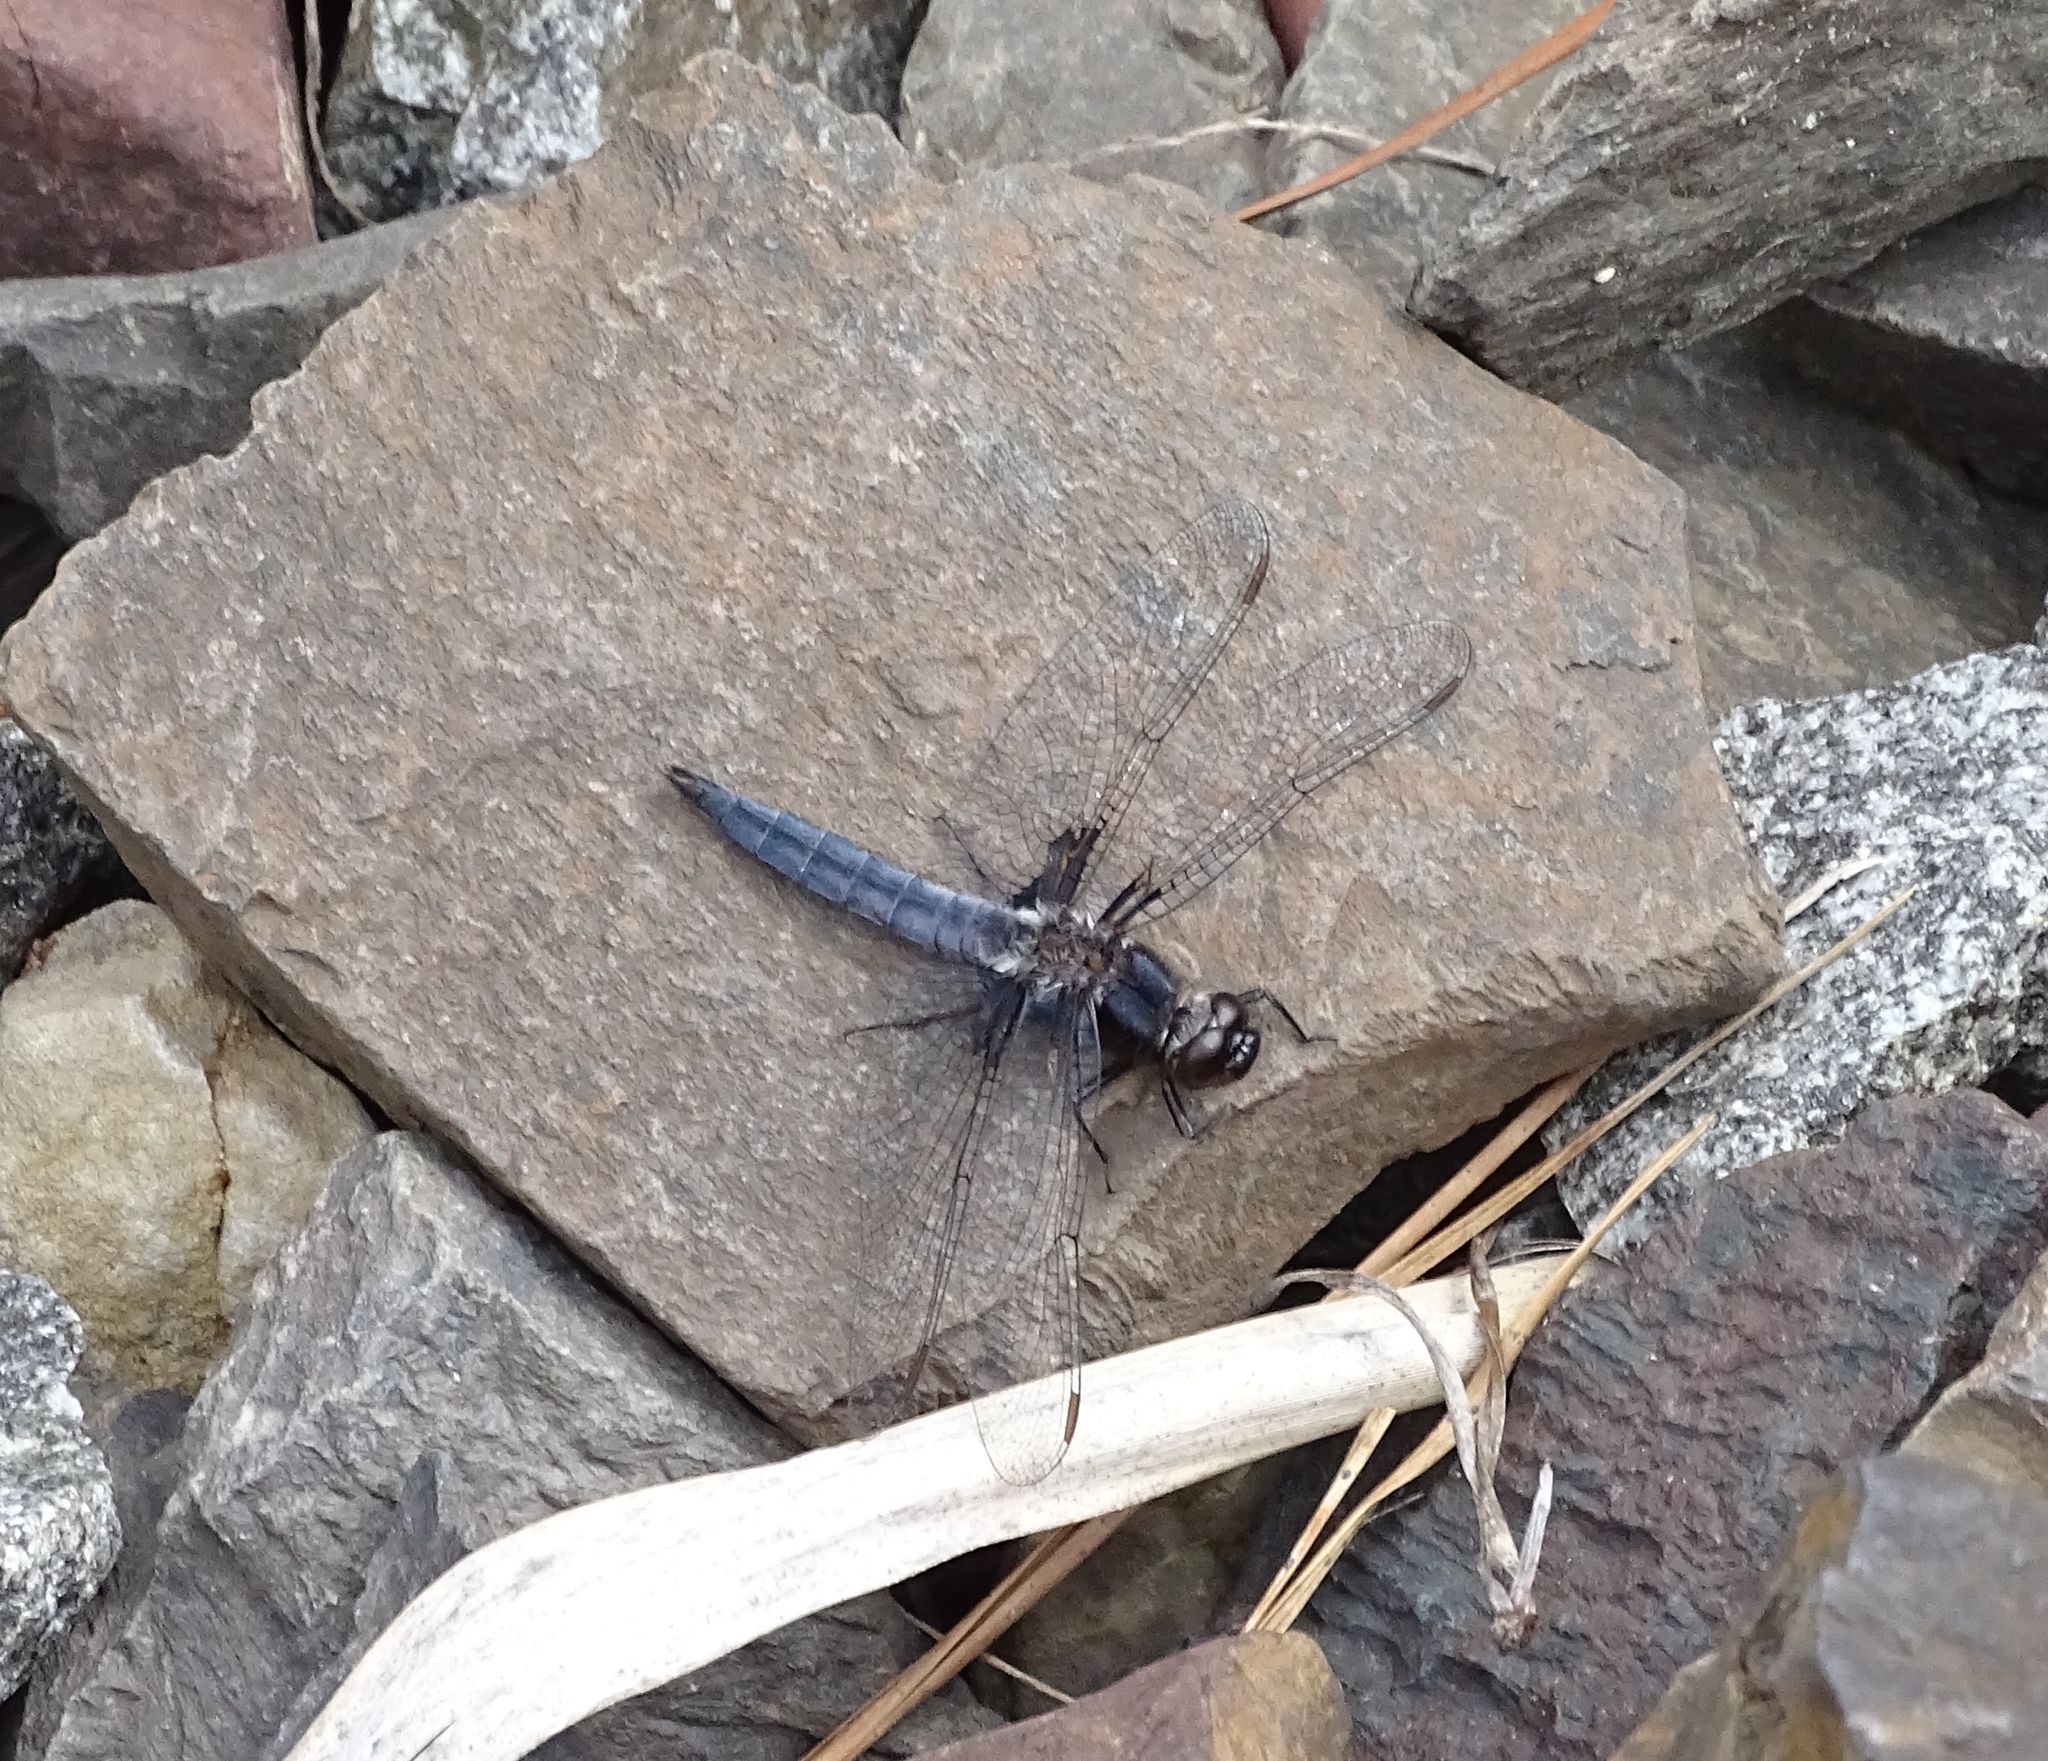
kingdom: Animalia
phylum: Arthropoda
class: Insecta
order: Odonata
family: Libellulidae
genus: Ladona
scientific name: Ladona deplanata
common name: Blue corporal
